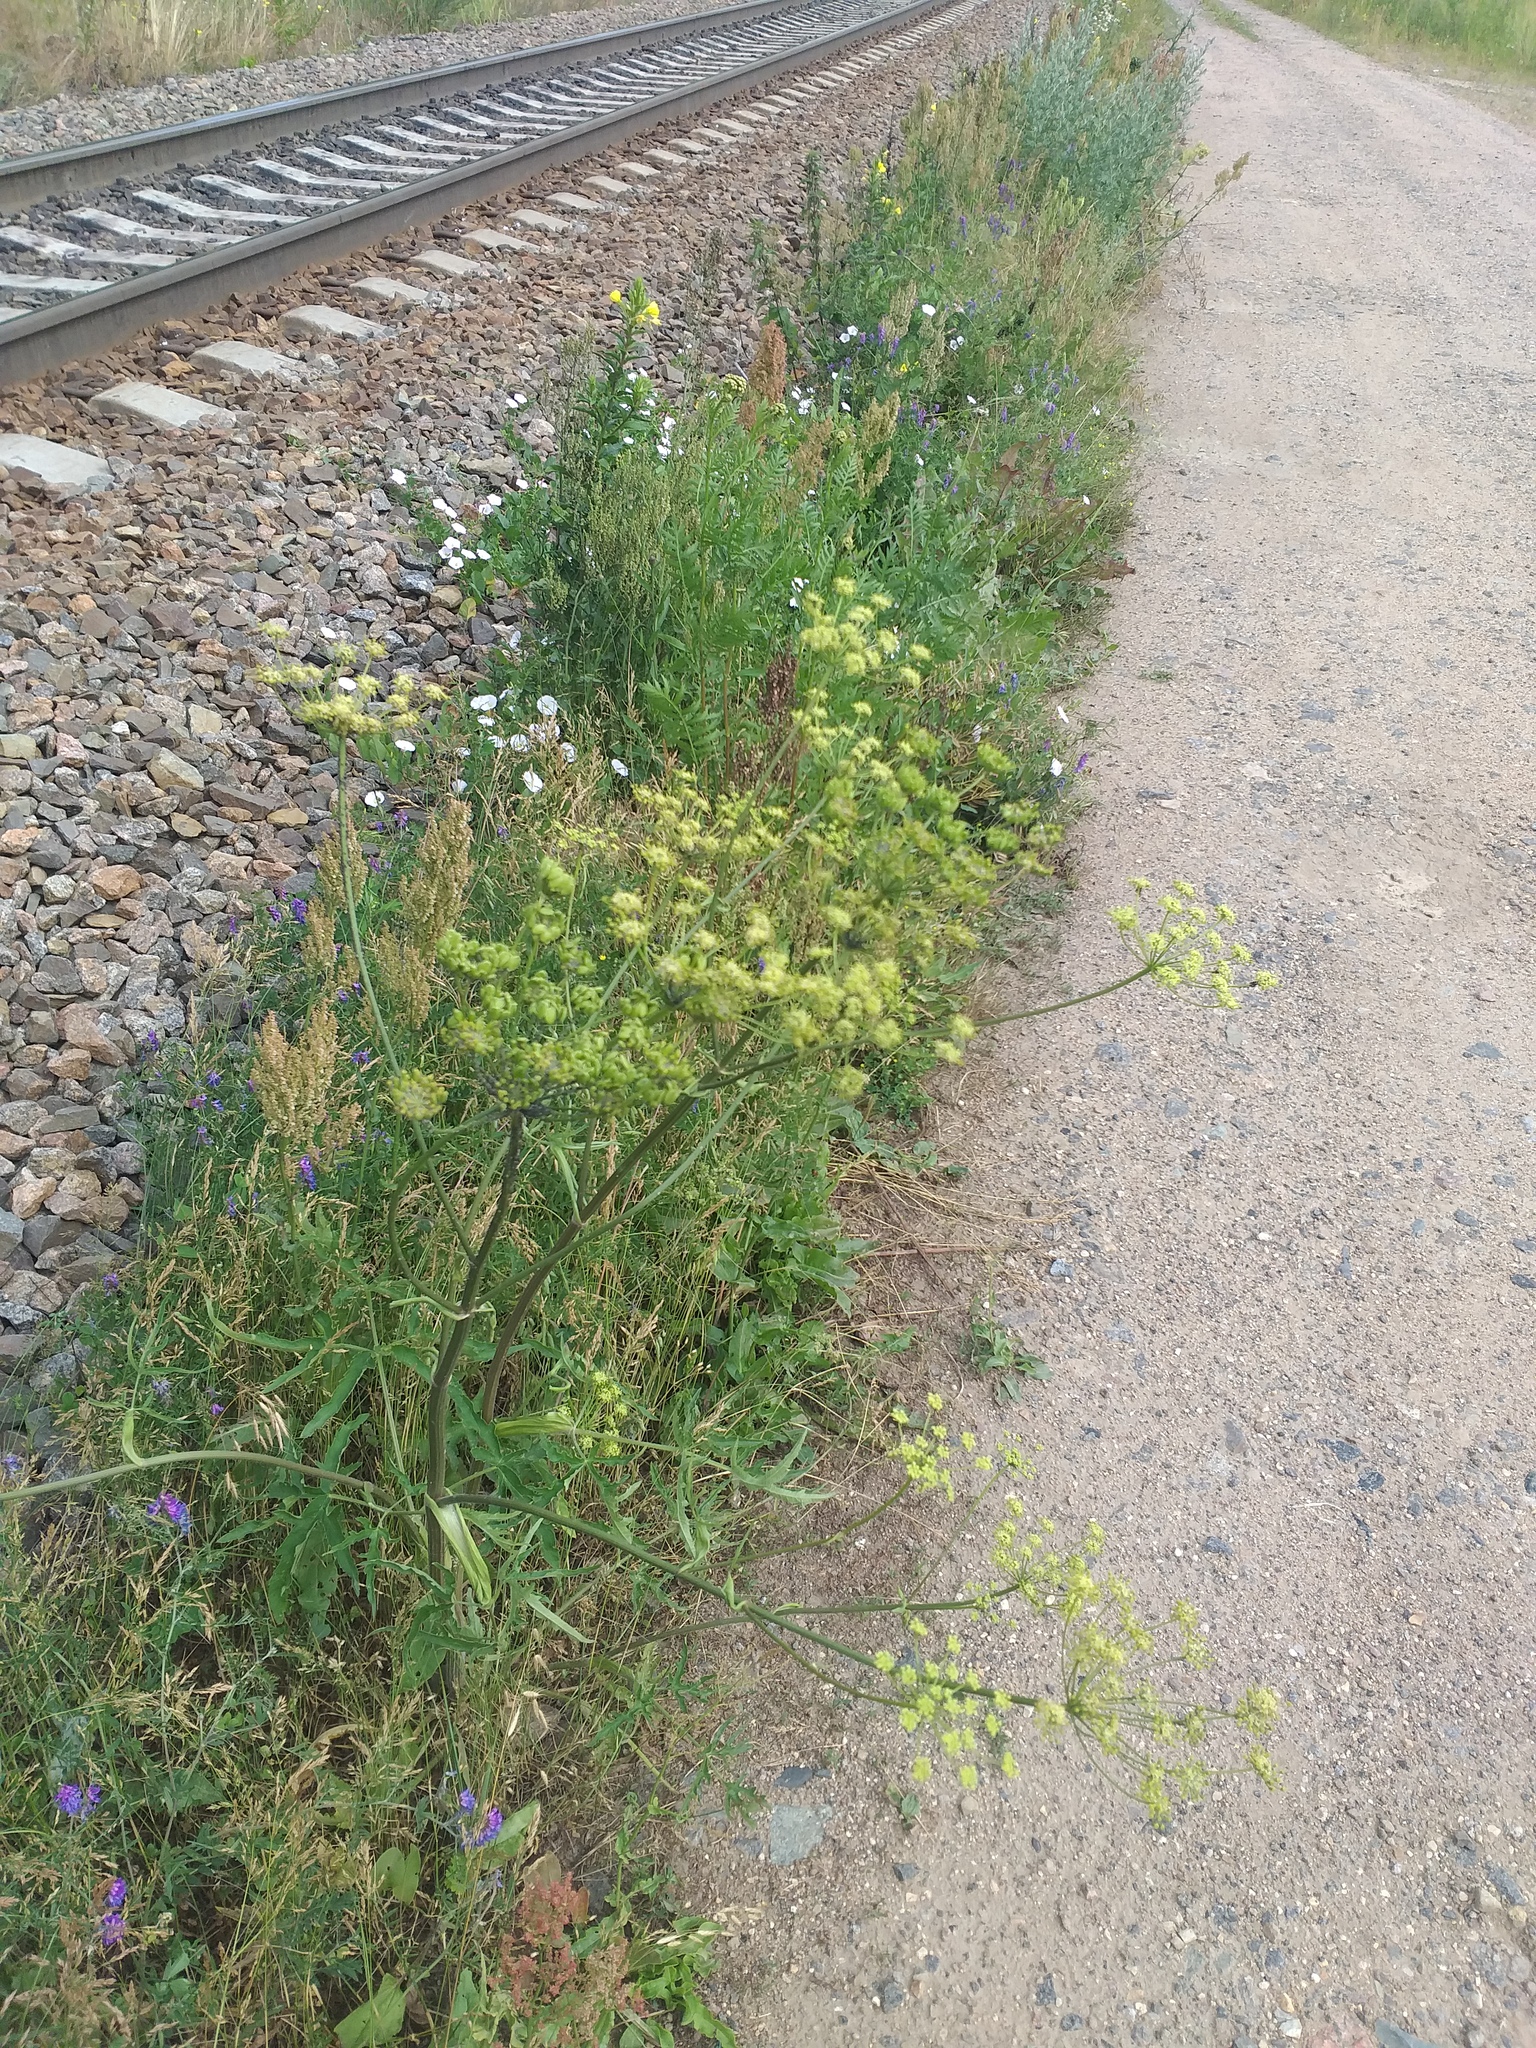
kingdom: Plantae
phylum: Tracheophyta
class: Magnoliopsida
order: Apiales
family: Apiaceae
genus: Heracleum
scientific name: Heracleum sphondylium
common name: Hogweed
